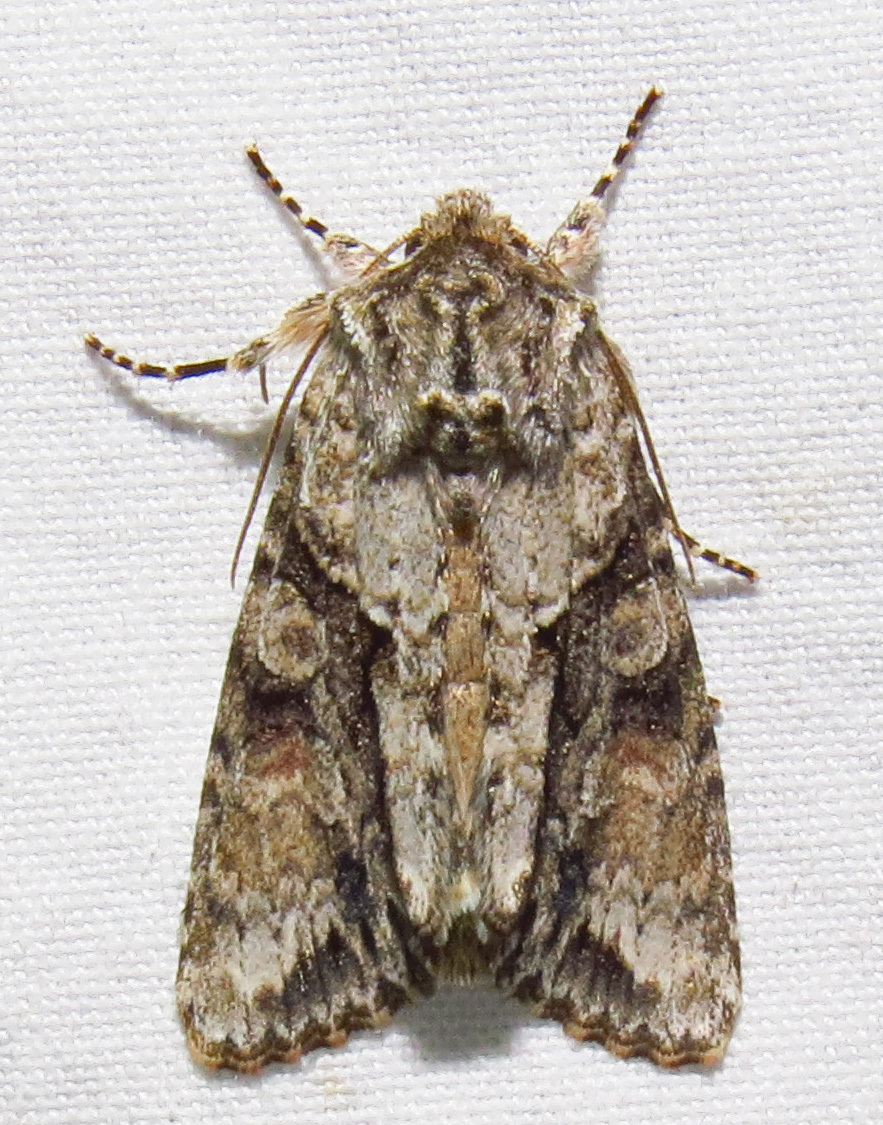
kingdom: Animalia
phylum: Arthropoda
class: Insecta
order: Lepidoptera
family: Noctuidae
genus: Achatia
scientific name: Achatia distincta
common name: Distinct quaker
